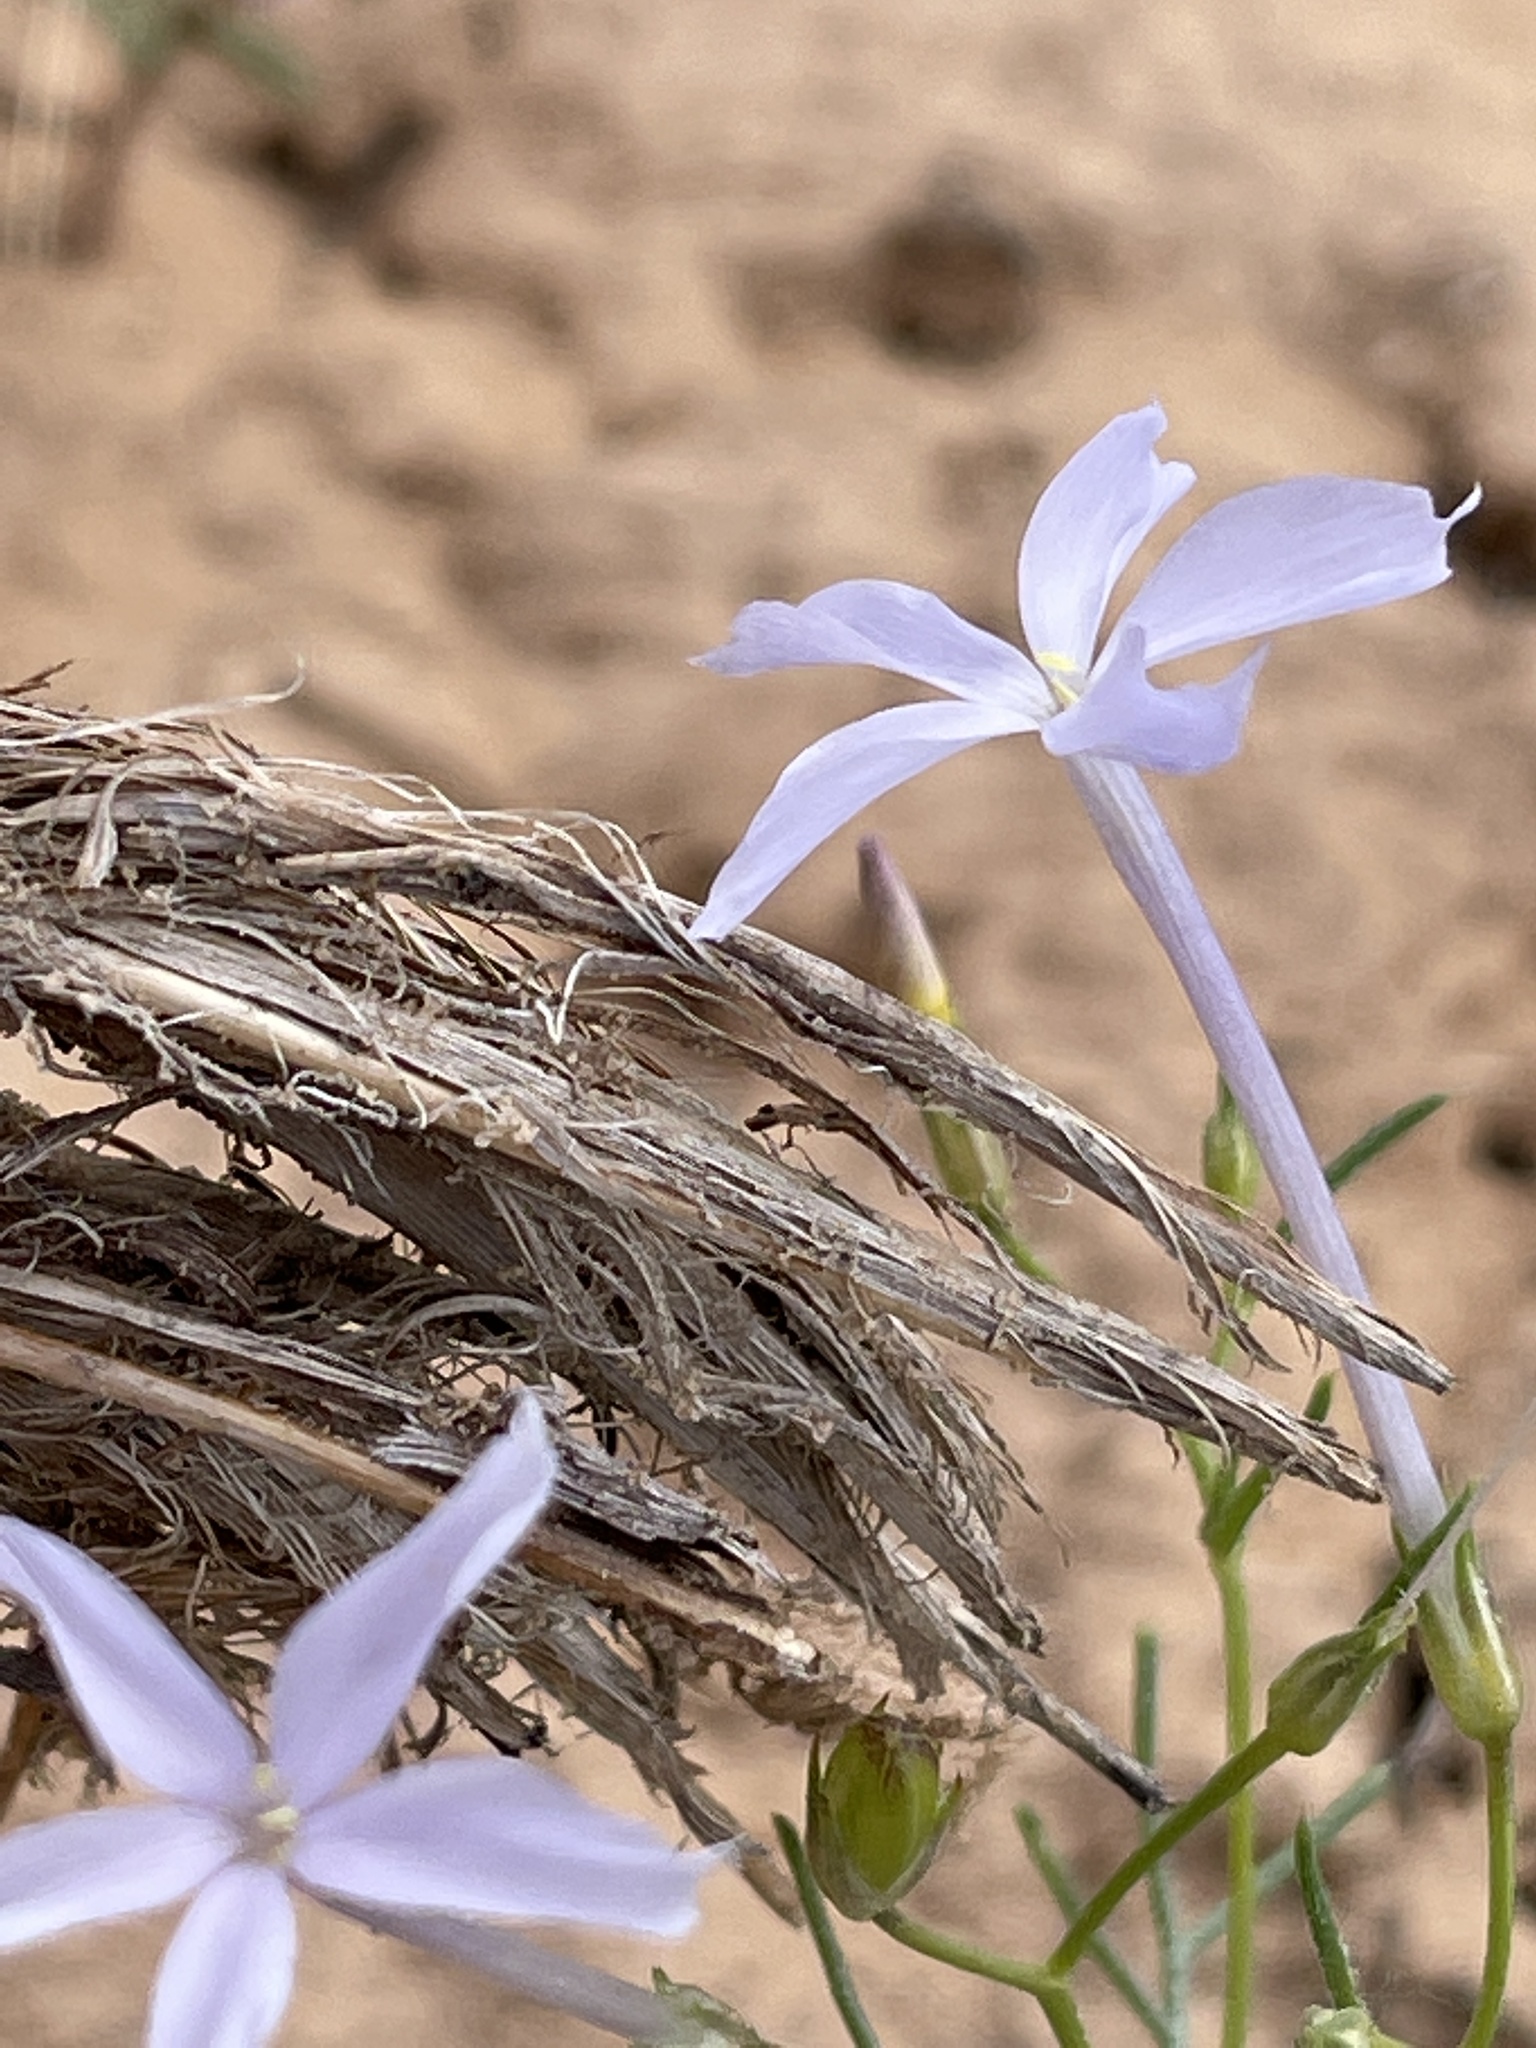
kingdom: Plantae
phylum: Tracheophyta
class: Magnoliopsida
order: Ericales
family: Polemoniaceae
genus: Ipomopsis
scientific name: Ipomopsis longiflora
